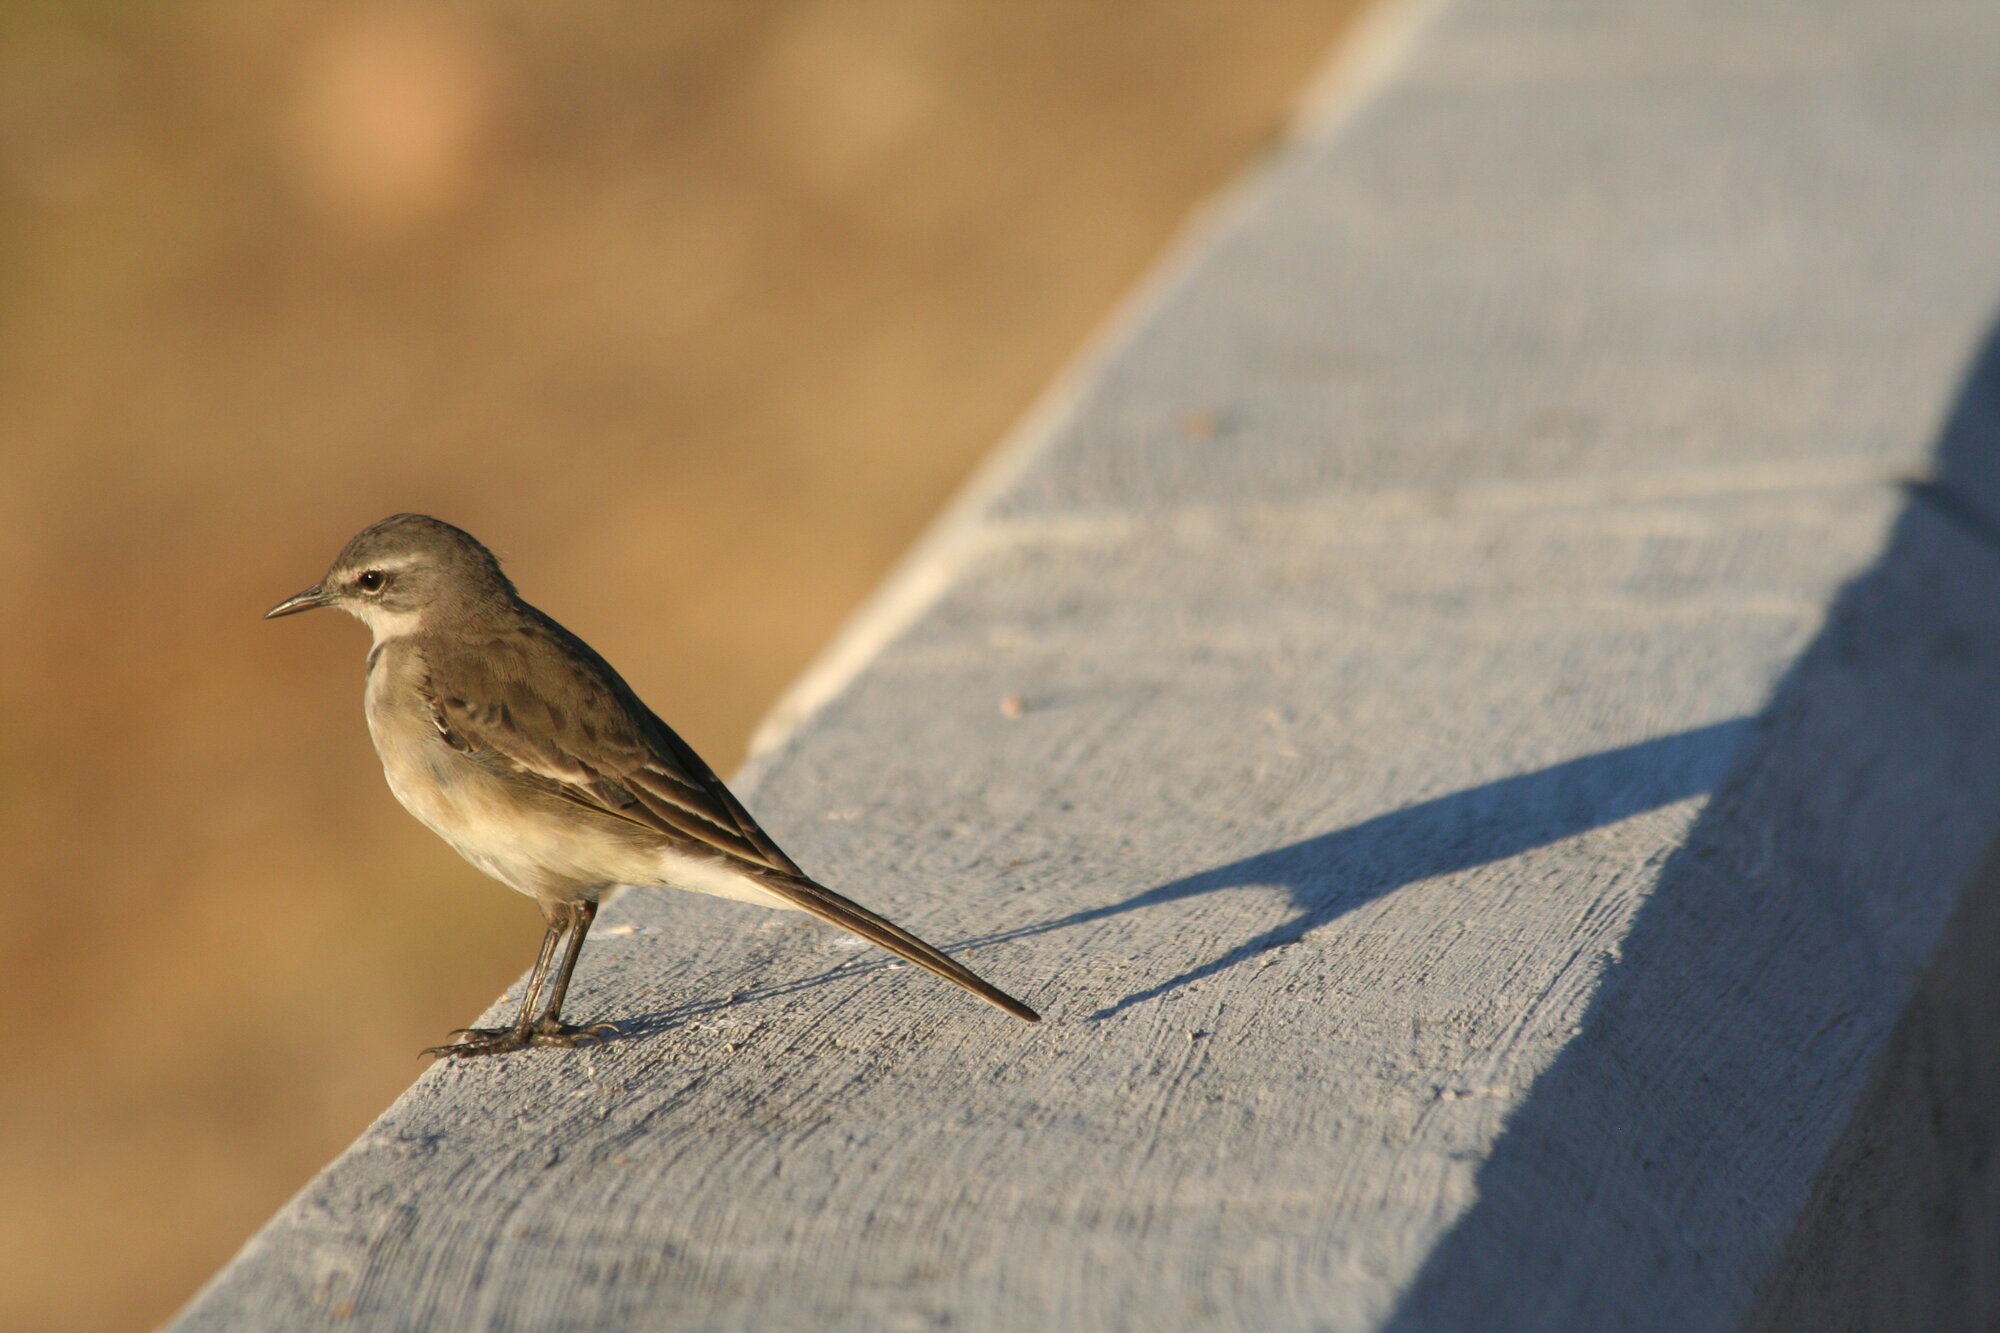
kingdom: Animalia
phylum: Chordata
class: Aves
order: Passeriformes
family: Motacillidae
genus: Motacilla
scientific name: Motacilla capensis
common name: Cape wagtail
